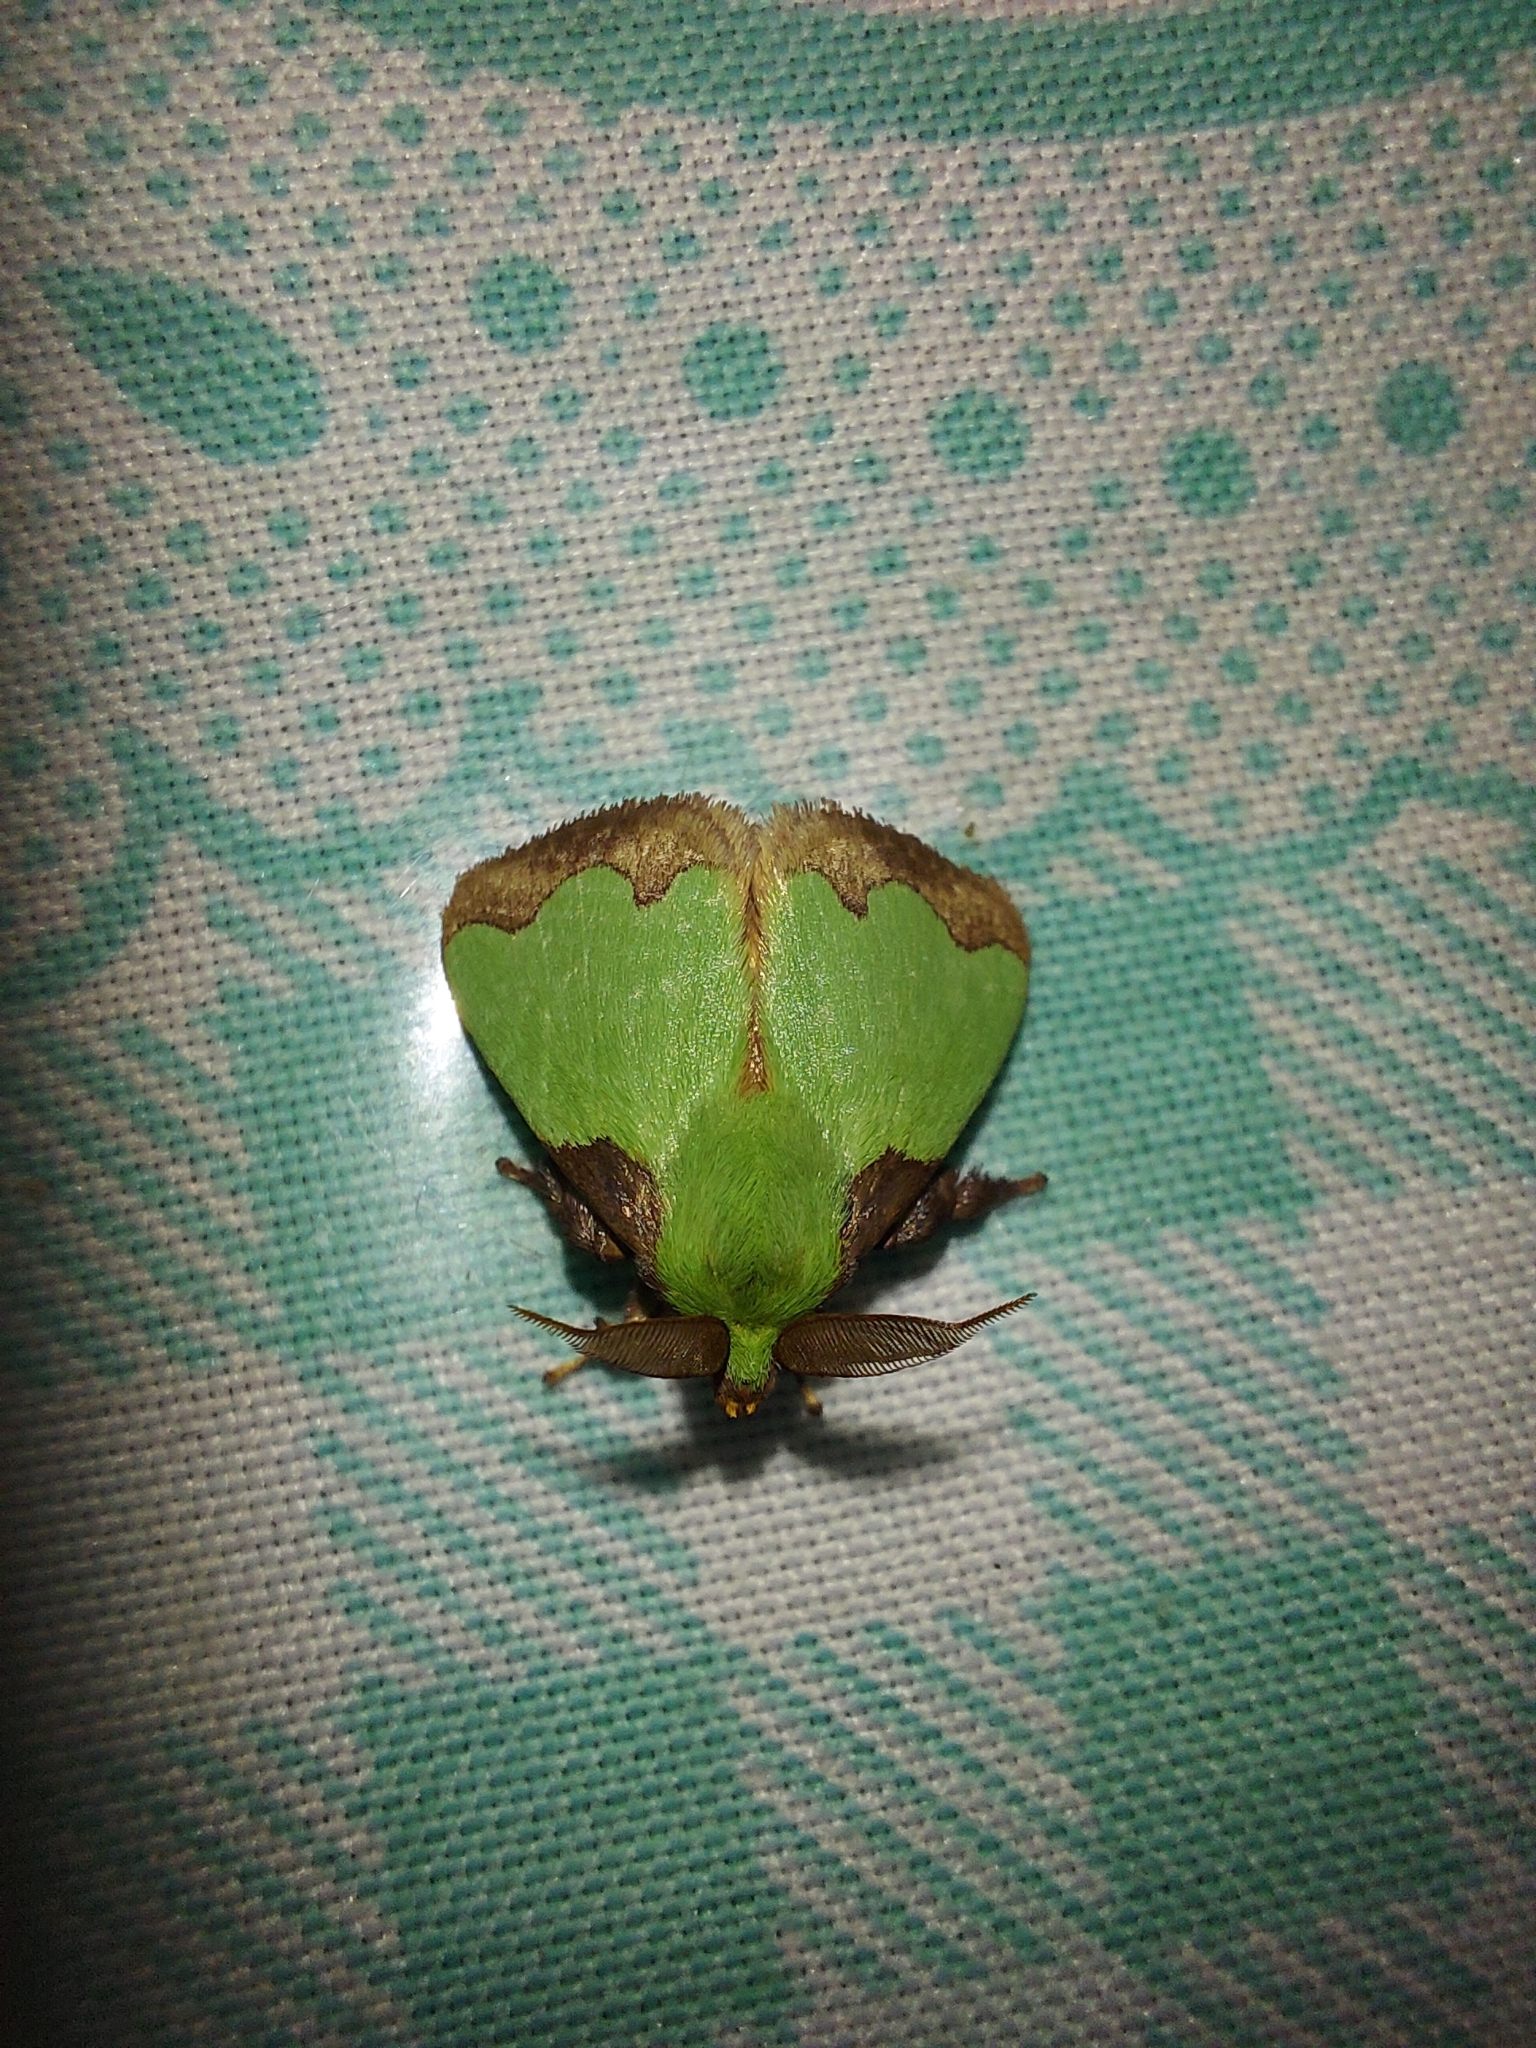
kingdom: Animalia
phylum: Arthropoda
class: Insecta
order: Lepidoptera
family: Limacodidae
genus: Parasa
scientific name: Parasa viridiplena
